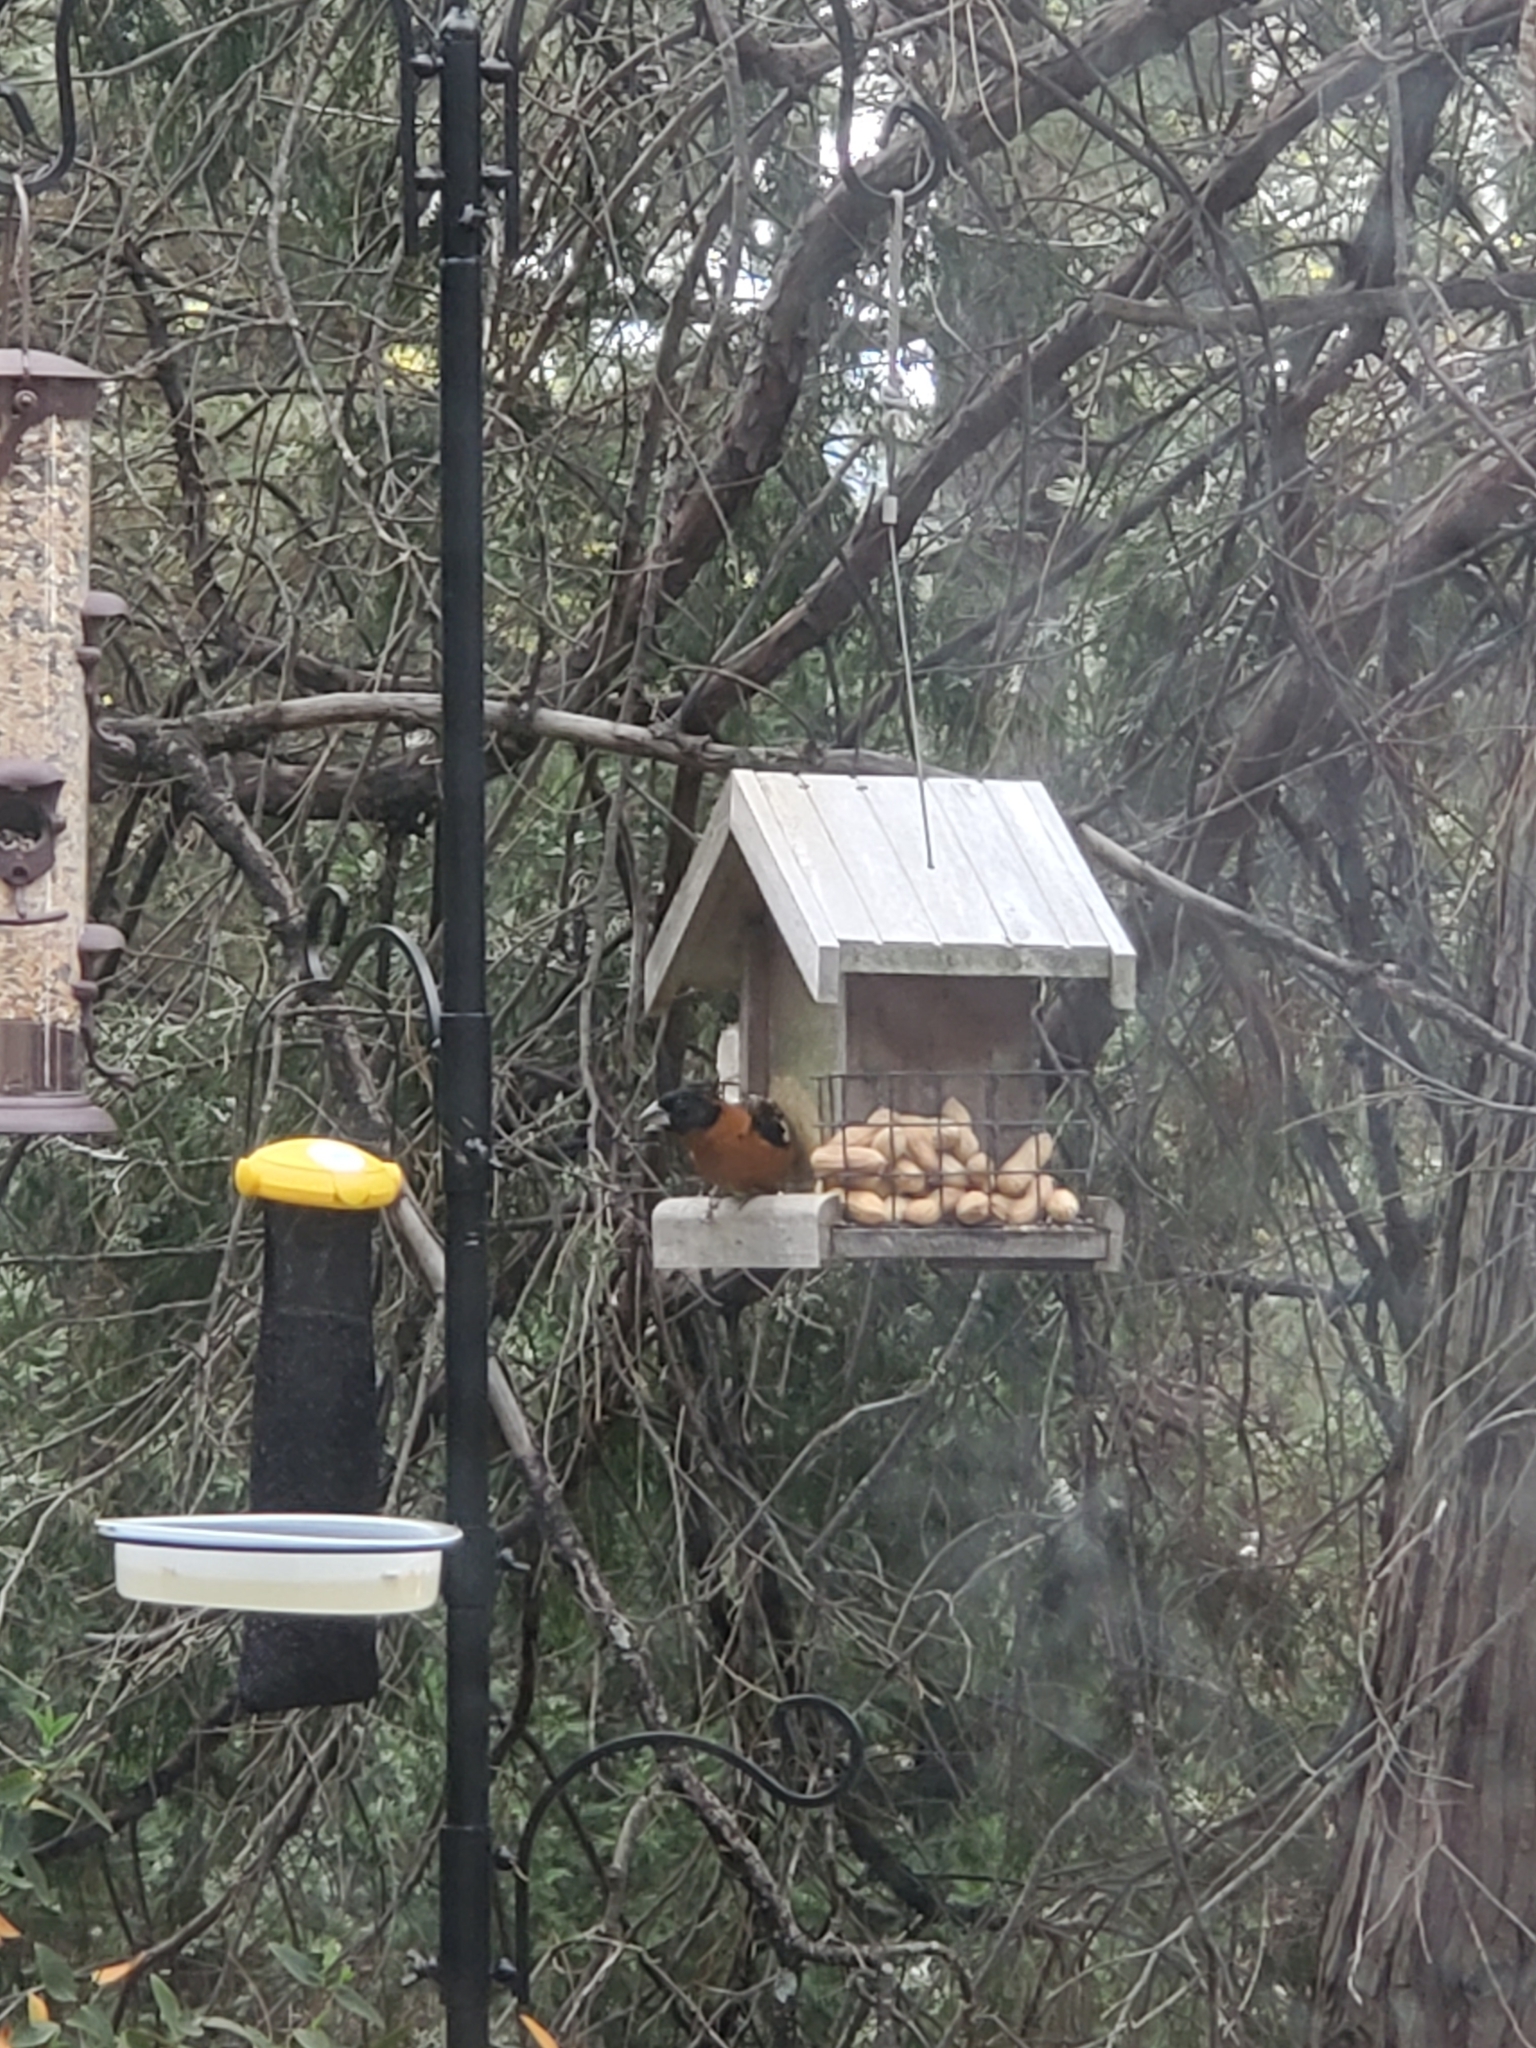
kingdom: Animalia
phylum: Chordata
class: Aves
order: Passeriformes
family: Cardinalidae
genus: Pheucticus
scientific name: Pheucticus melanocephalus
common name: Black-headed grosbeak
